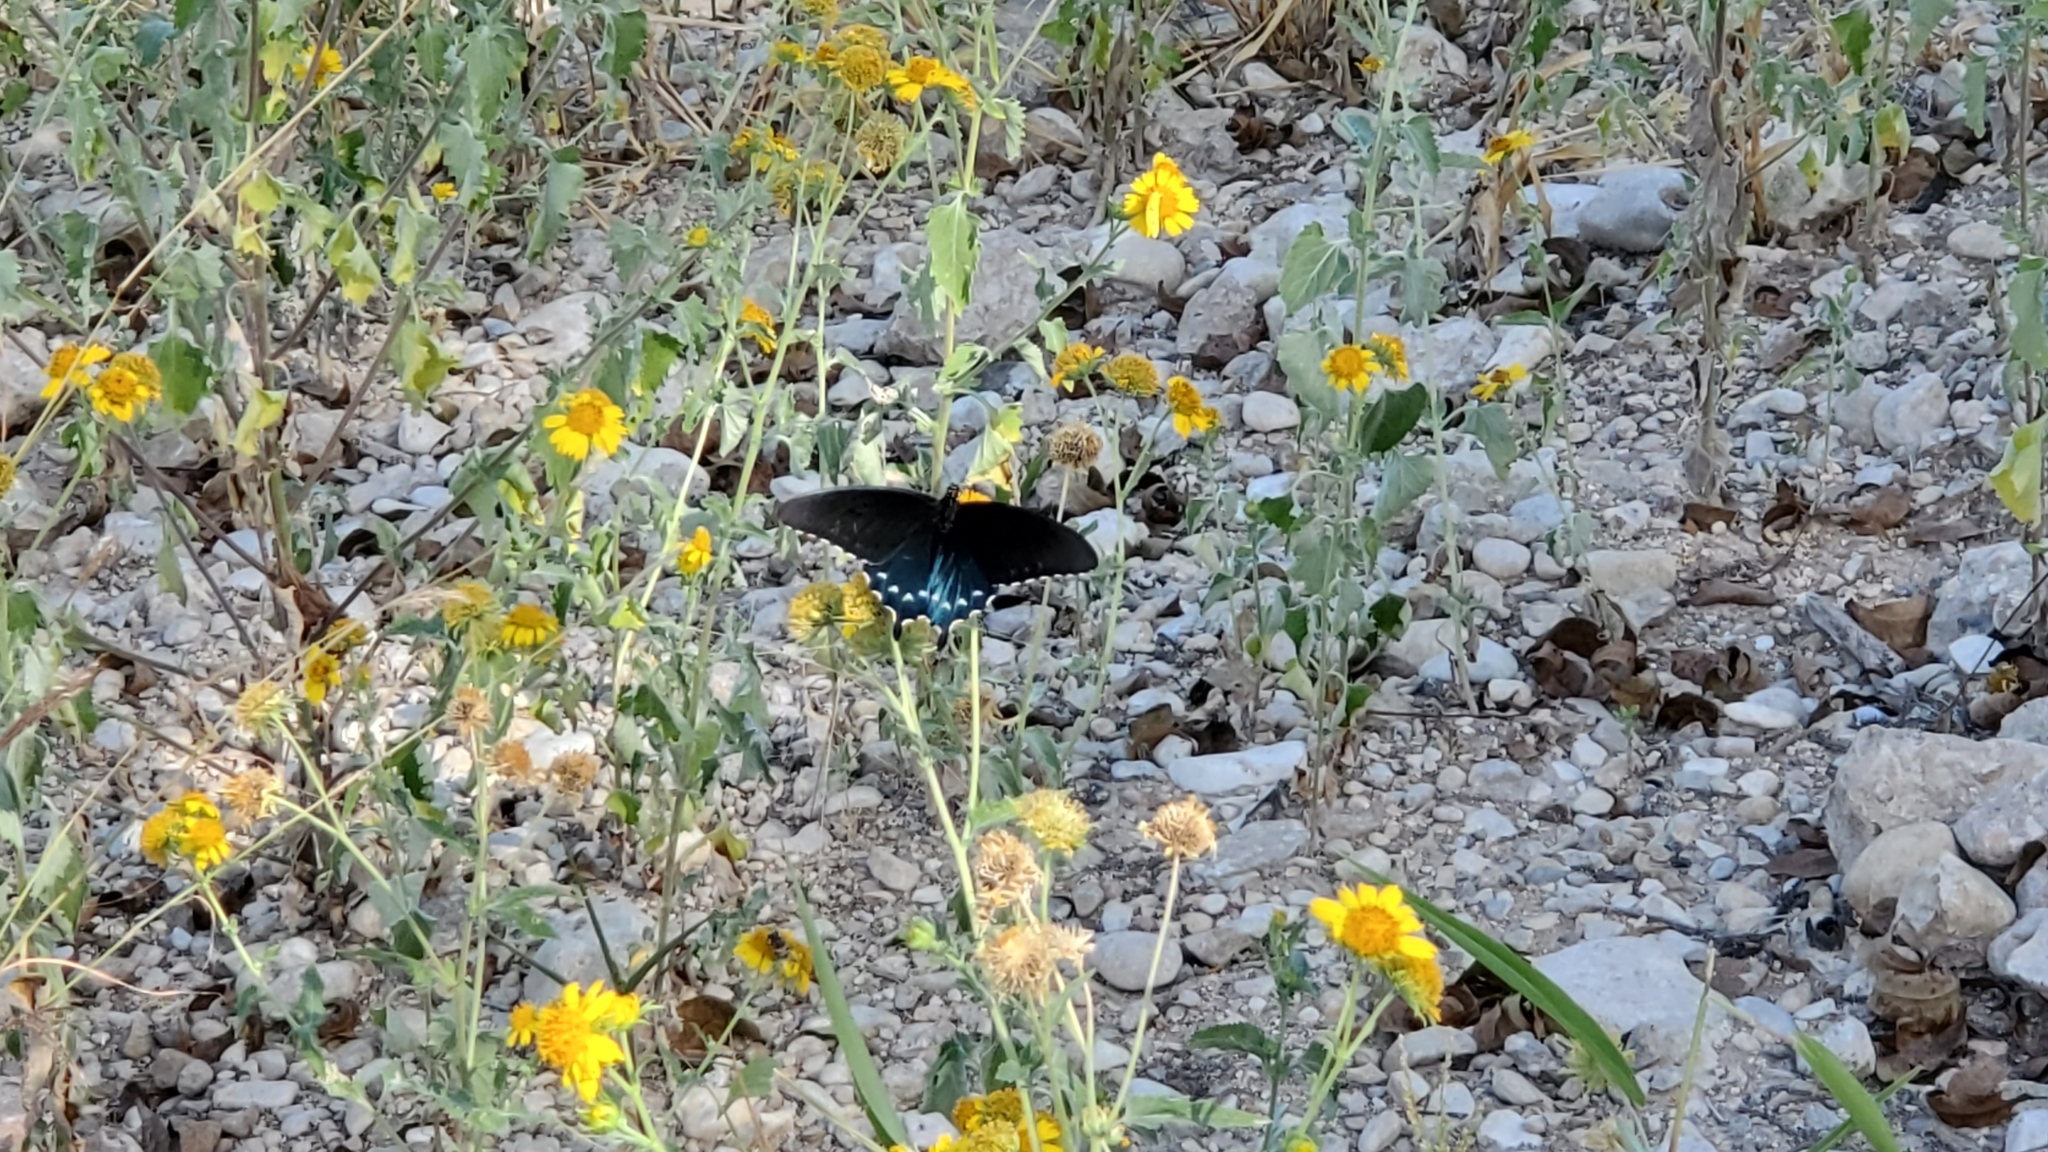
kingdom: Animalia
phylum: Arthropoda
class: Insecta
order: Lepidoptera
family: Papilionidae
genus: Battus
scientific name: Battus philenor
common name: Pipevine swallowtail
